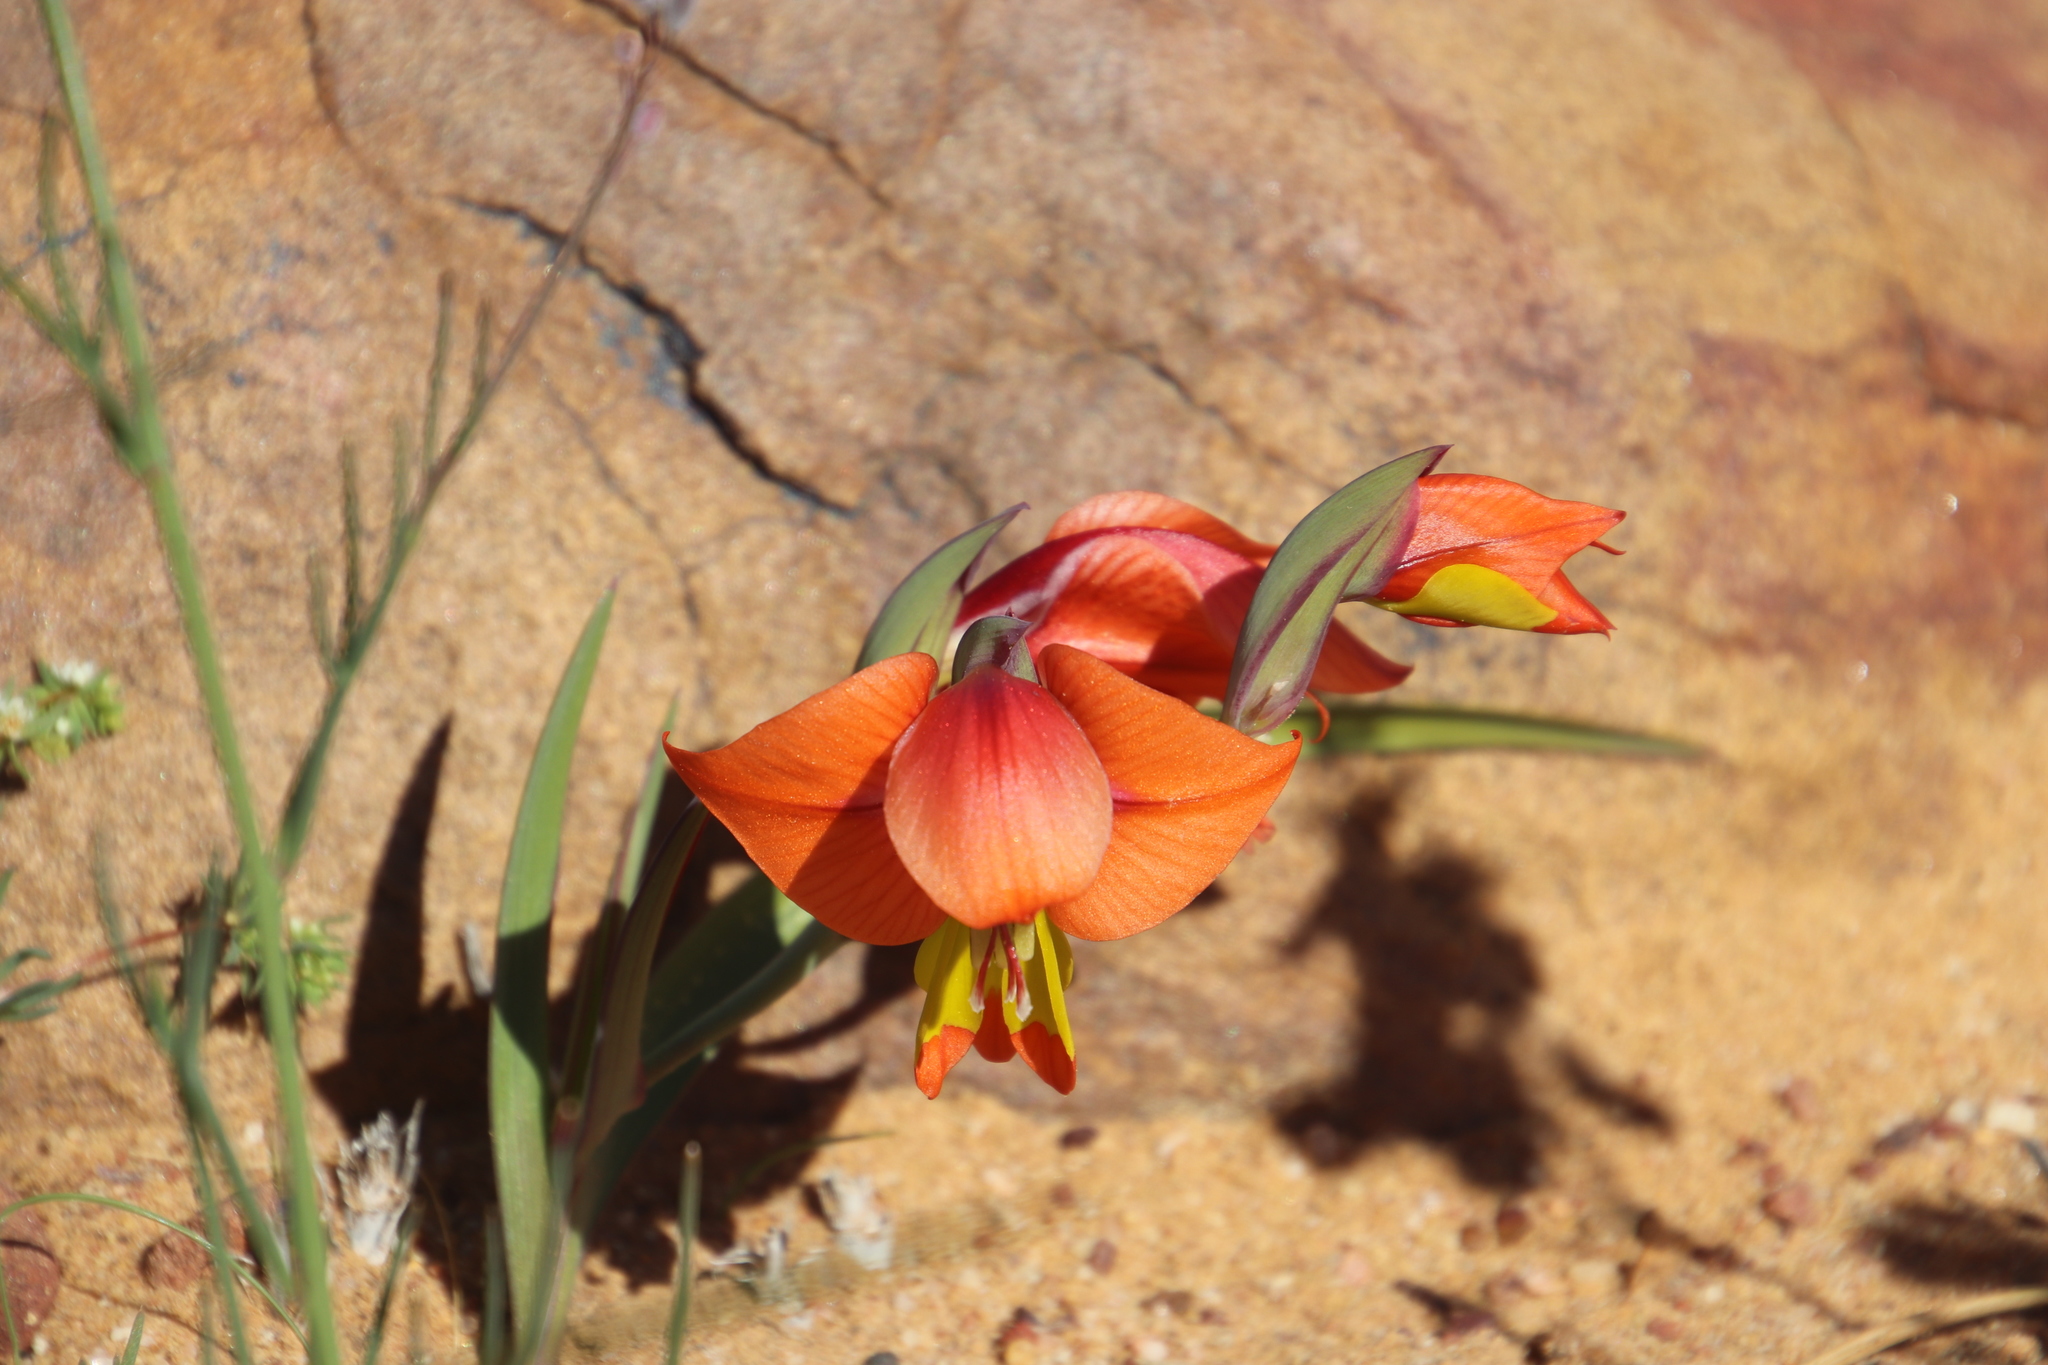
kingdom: Plantae
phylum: Tracheophyta
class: Liliopsida
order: Asparagales
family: Iridaceae
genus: Gladiolus
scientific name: Gladiolus alatus
